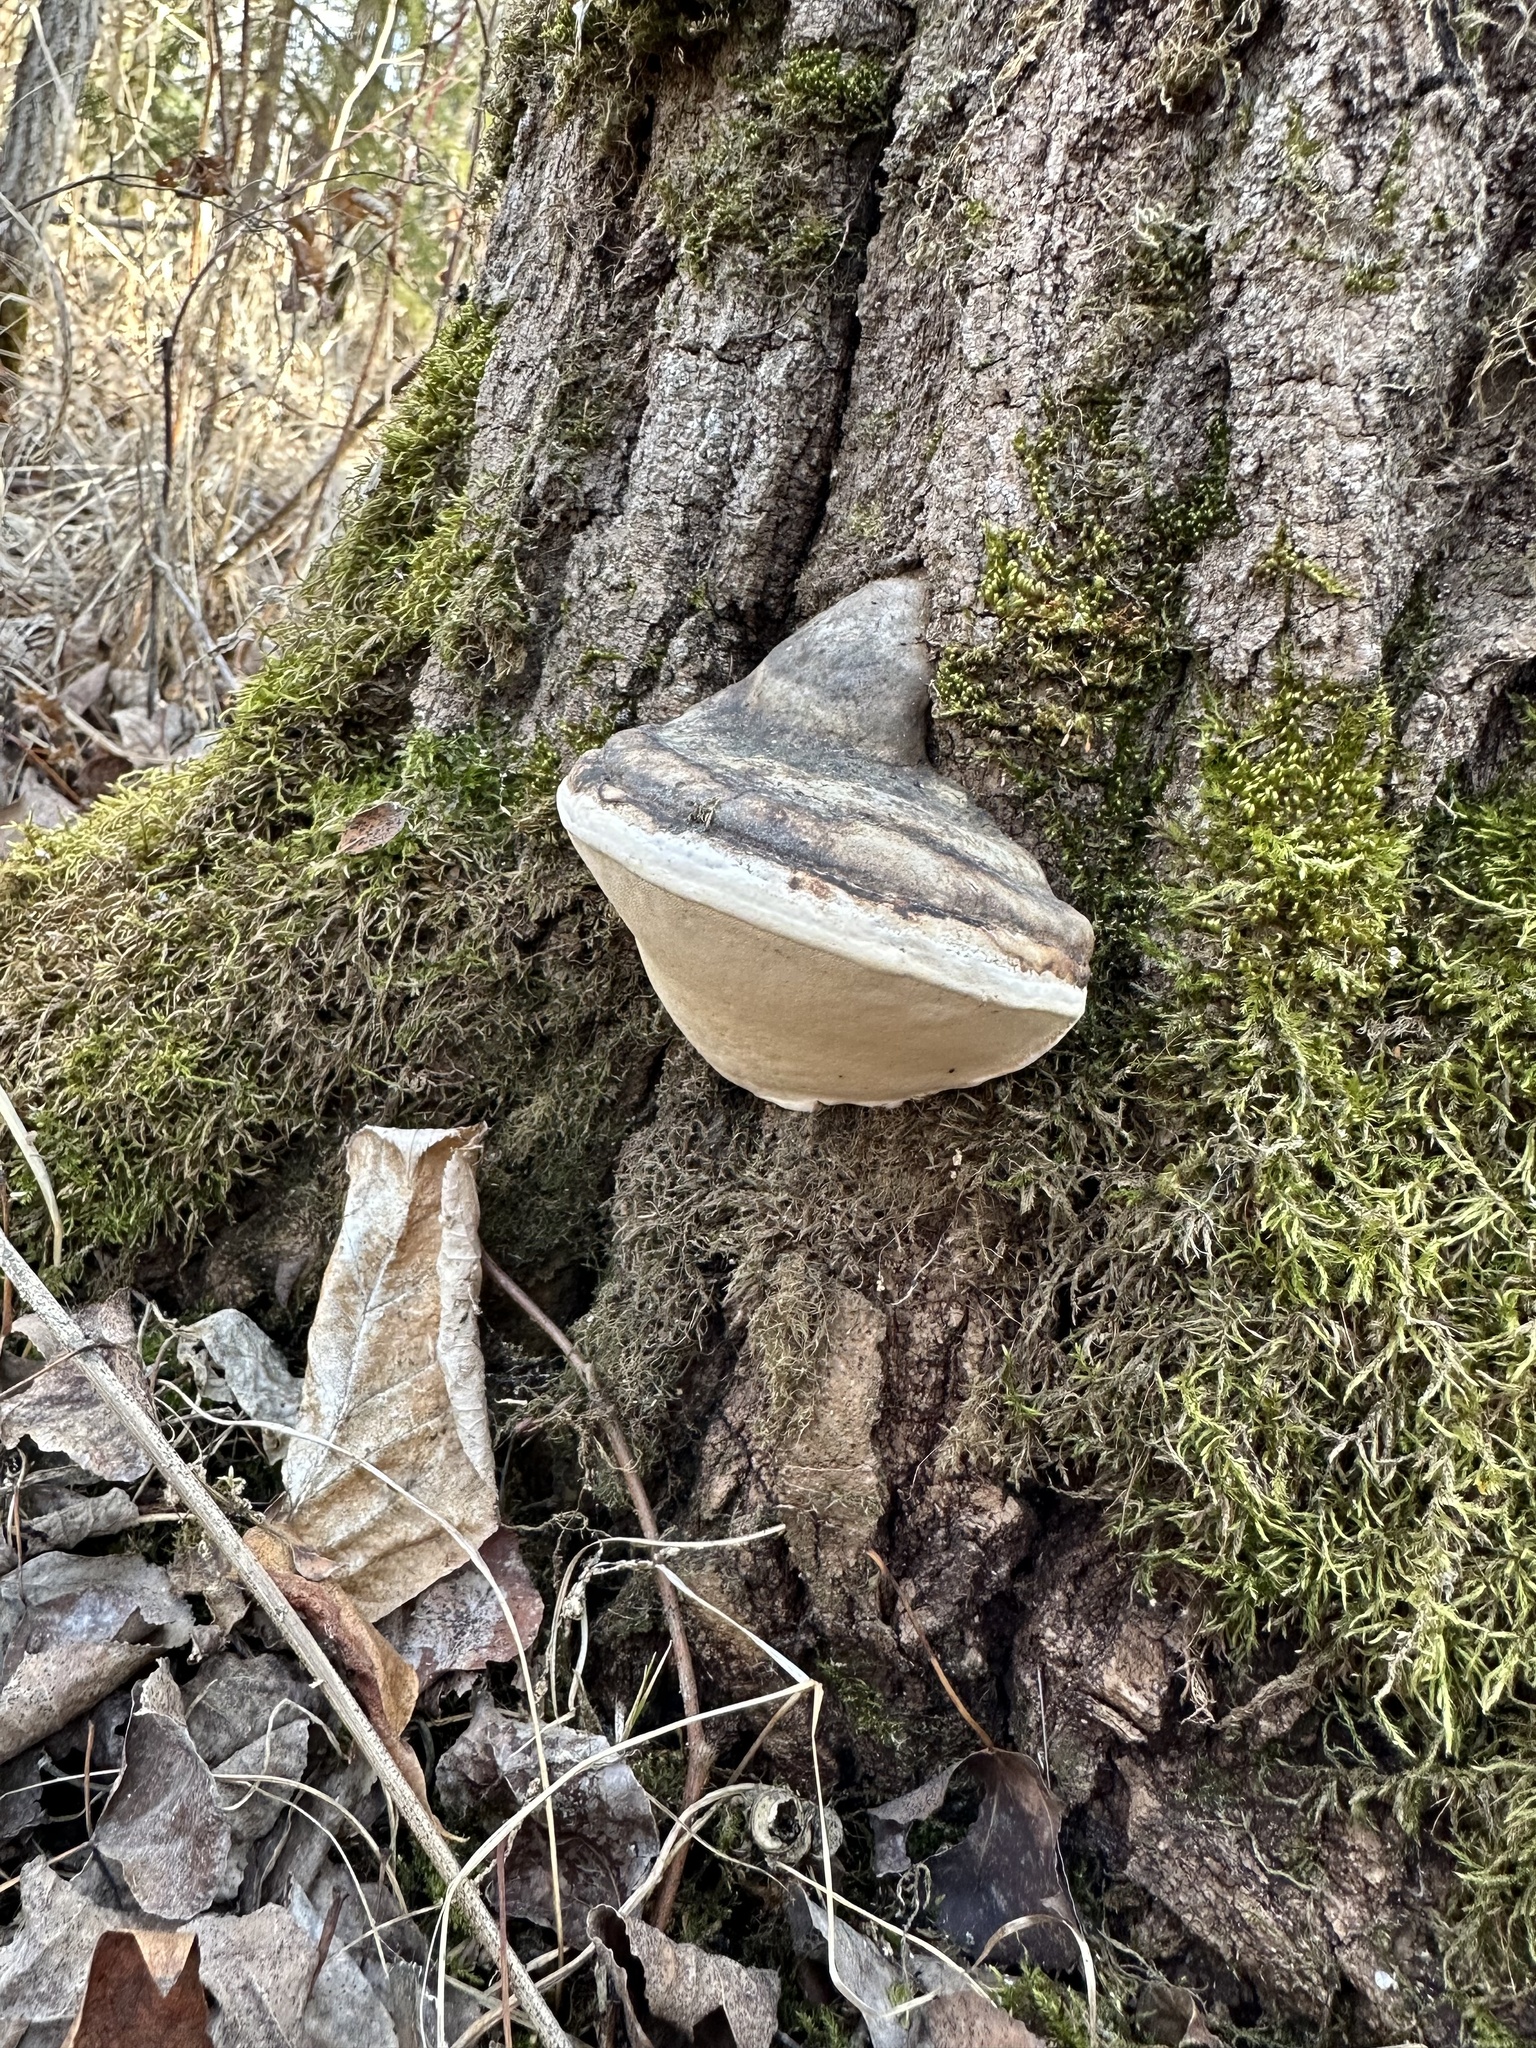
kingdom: Fungi
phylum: Basidiomycota
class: Agaricomycetes
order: Polyporales
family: Fomitopsidaceae
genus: Fomitopsis
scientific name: Fomitopsis ochracea
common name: American brown fomitopsis
